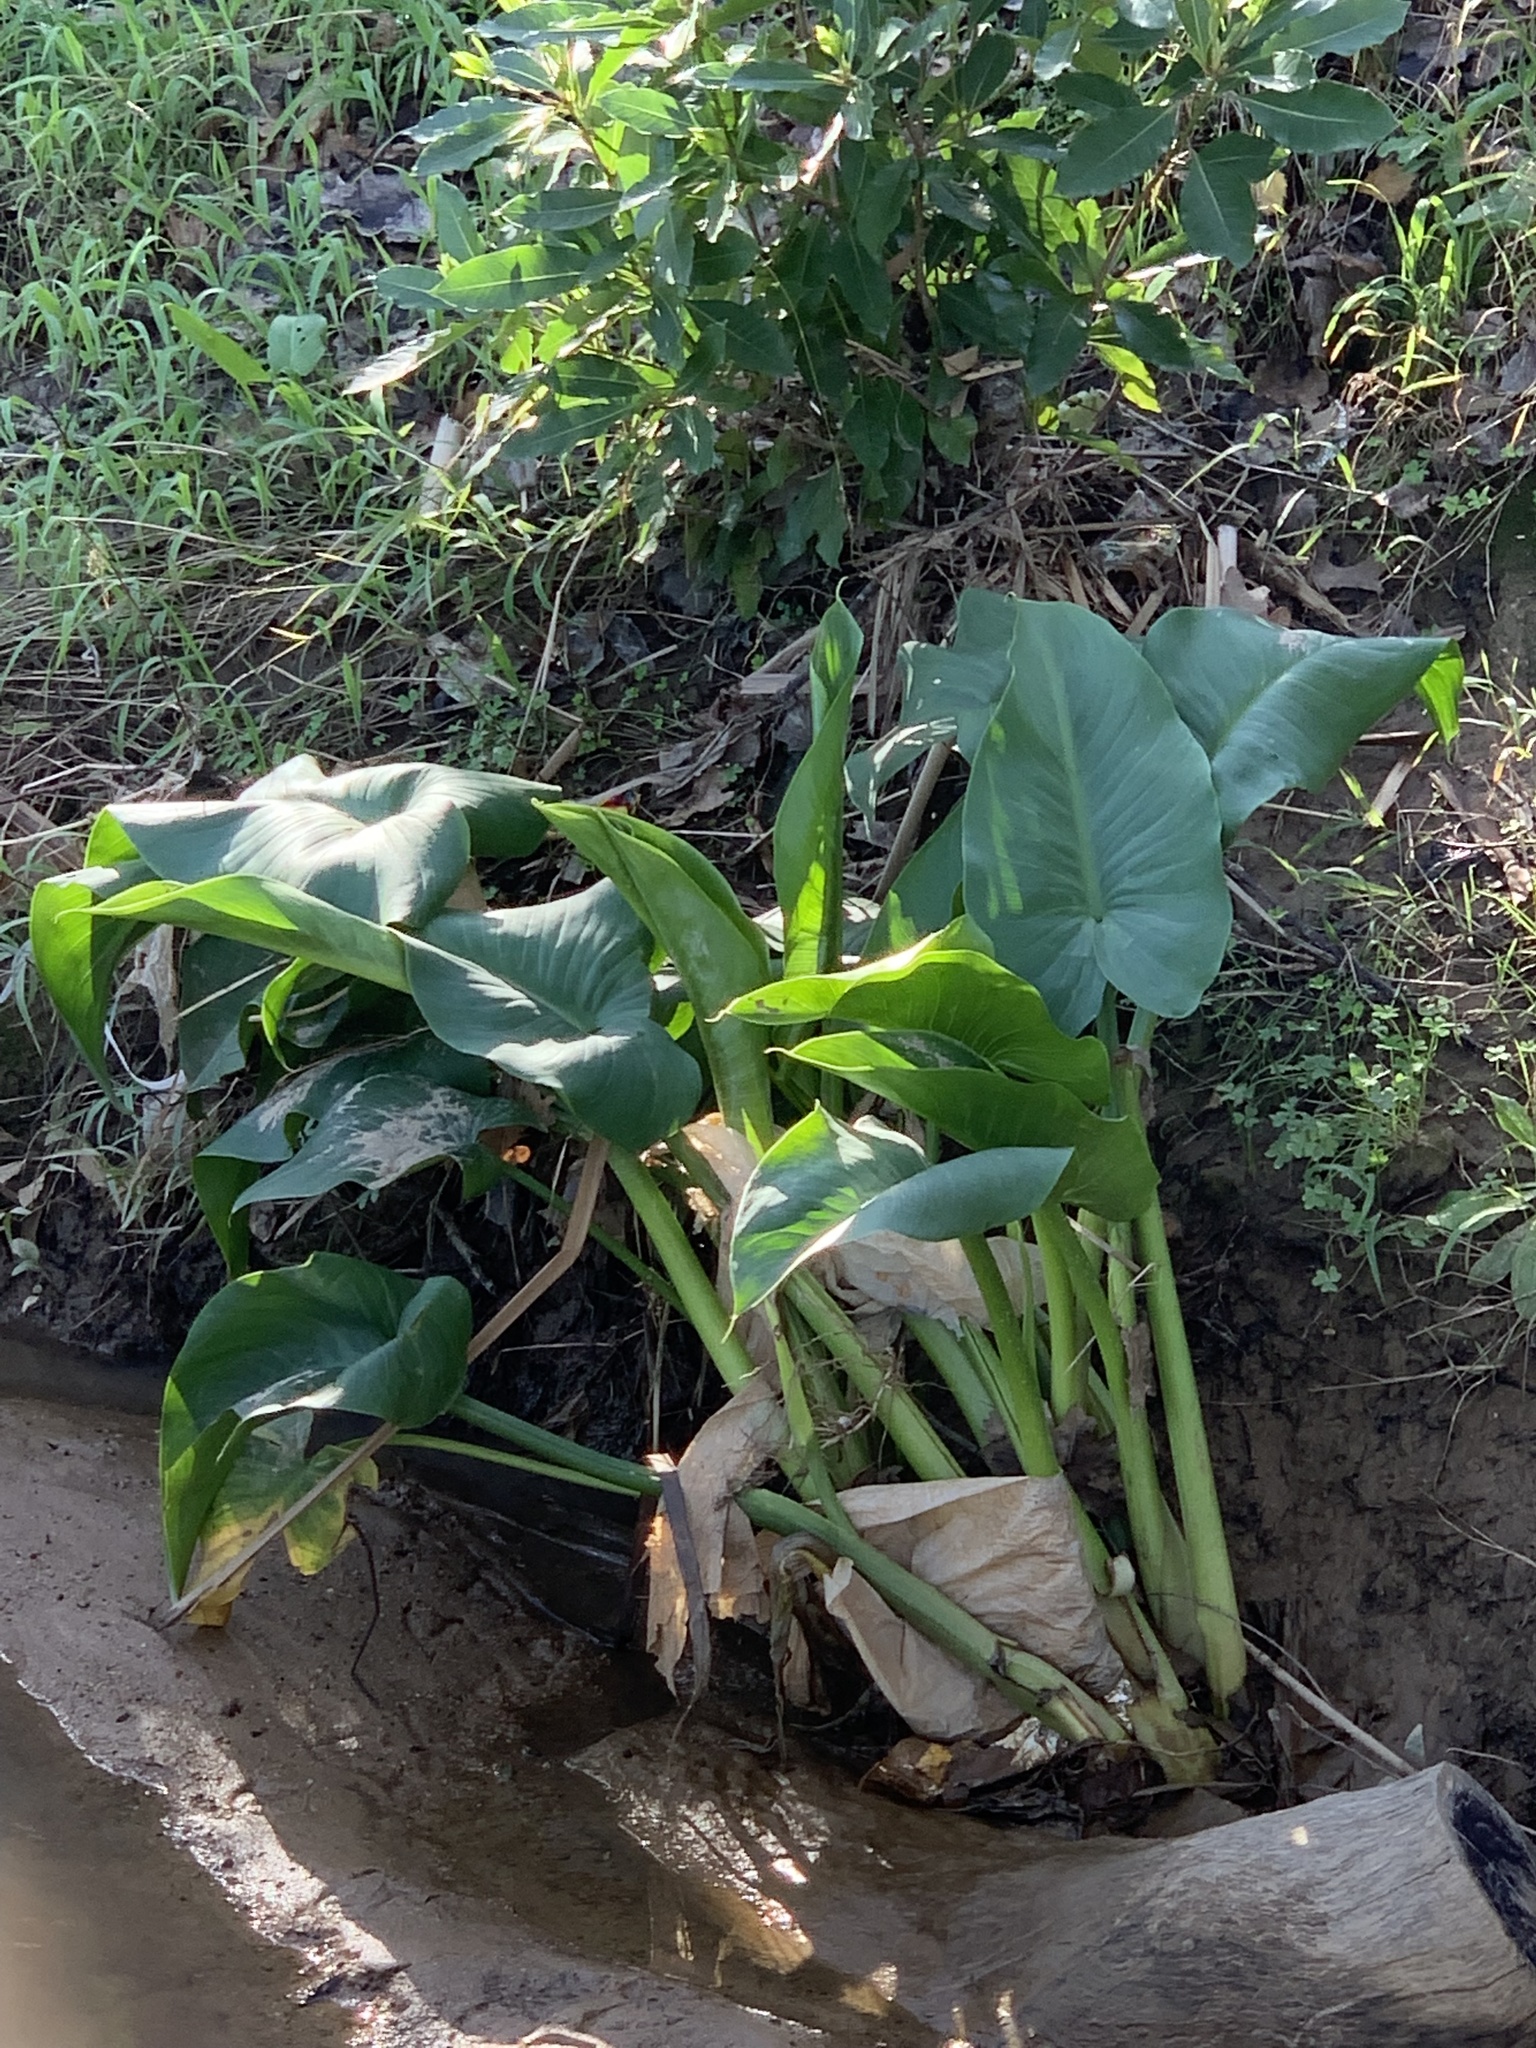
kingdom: Plantae
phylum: Tracheophyta
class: Liliopsida
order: Alismatales
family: Araceae
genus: Zantedeschia
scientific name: Zantedeschia aethiopica
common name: Altar-lily
